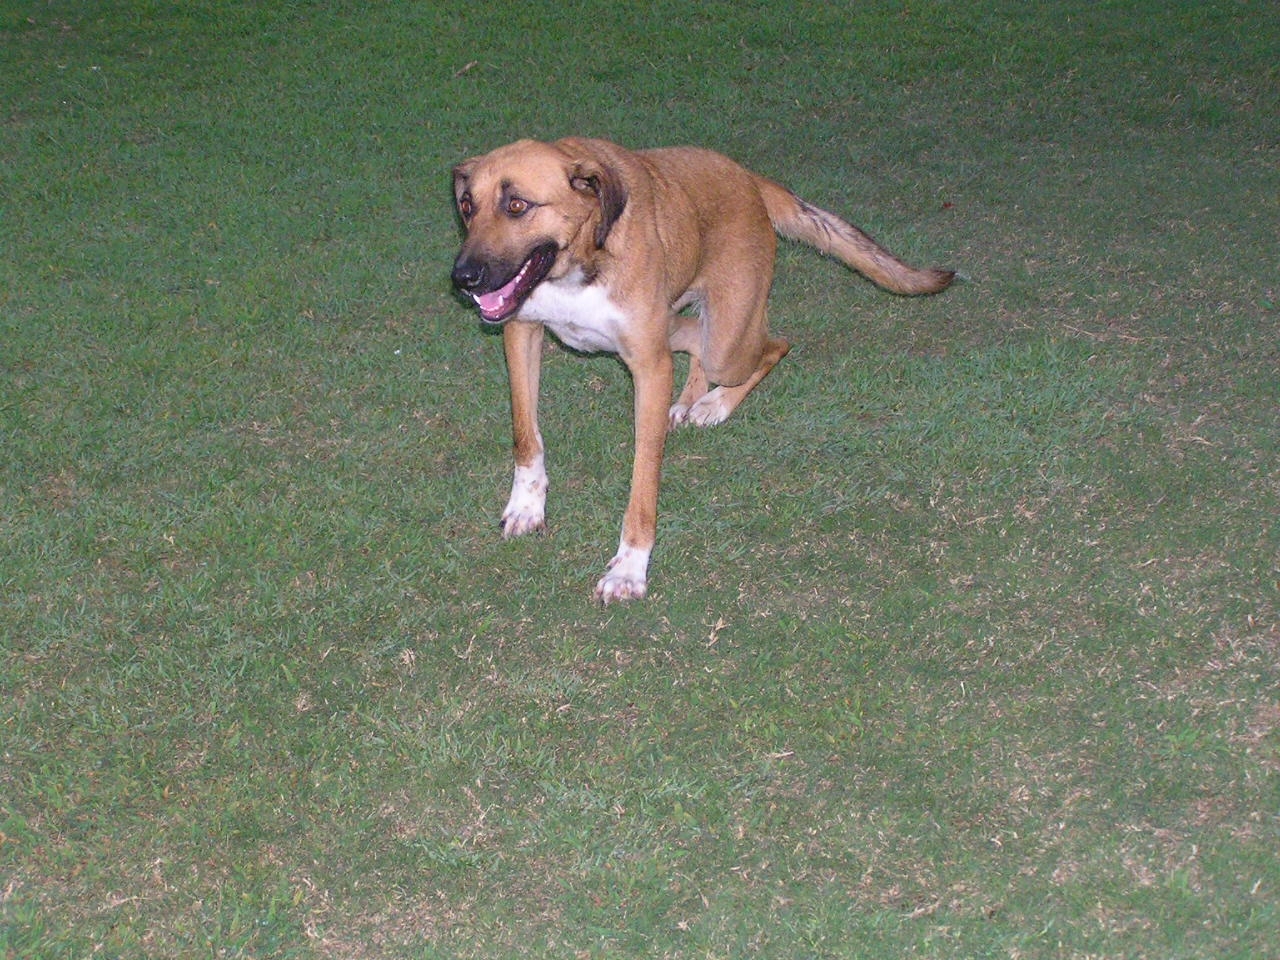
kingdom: Animalia
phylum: Chordata
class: Mammalia
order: Carnivora
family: Canidae
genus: Canis
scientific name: Canis lupus
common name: Gray wolf
